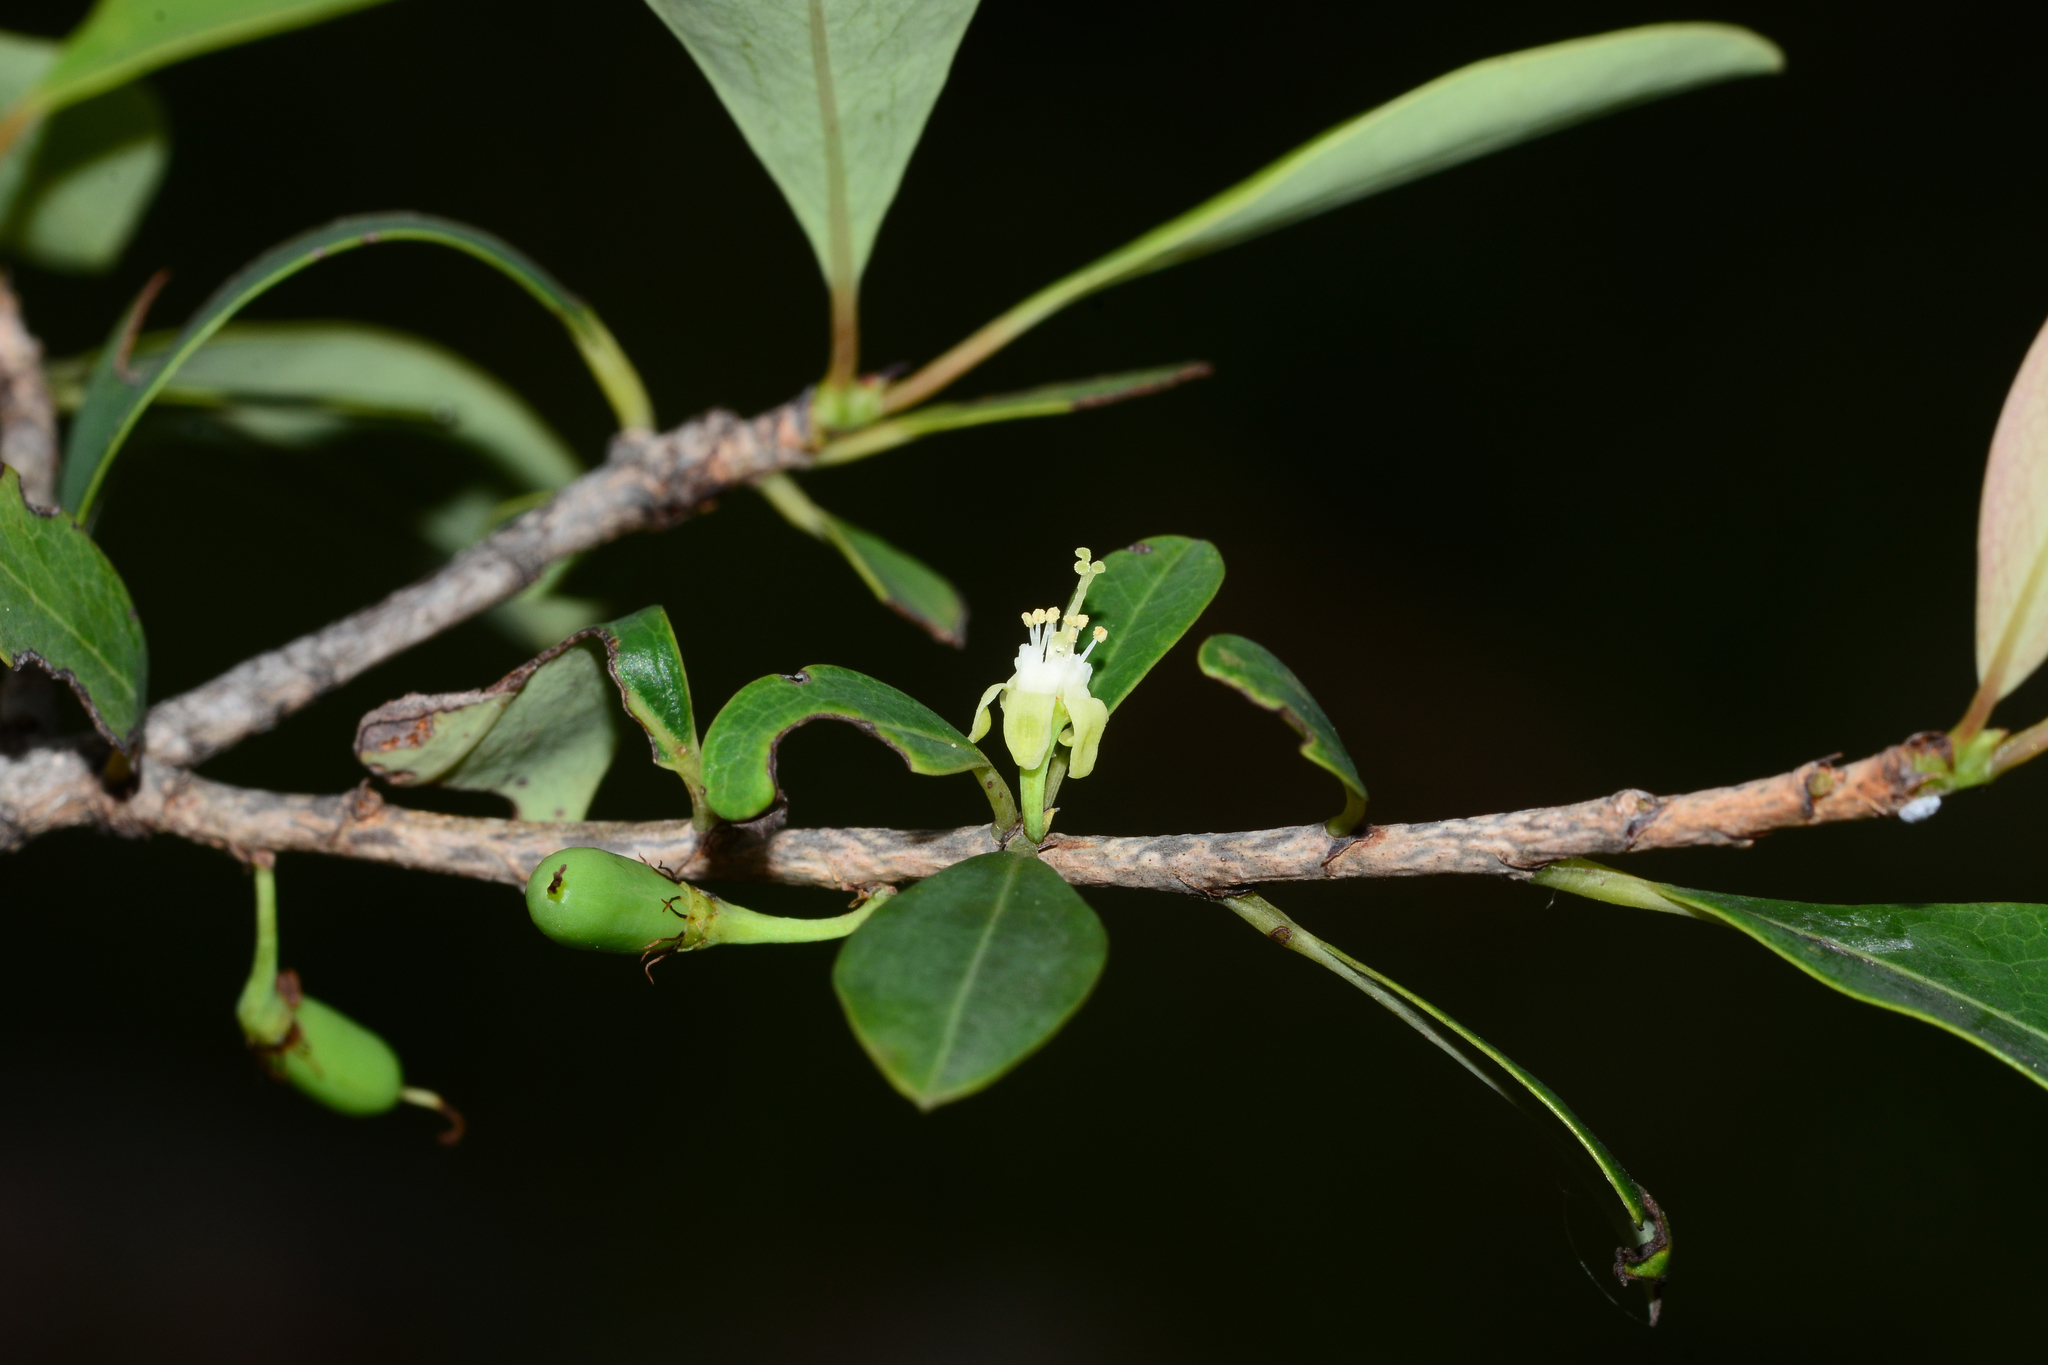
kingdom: Plantae
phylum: Tracheophyta
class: Magnoliopsida
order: Malpighiales
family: Erythroxylaceae
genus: Erythroxylum
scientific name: Erythroxylum monogynum
